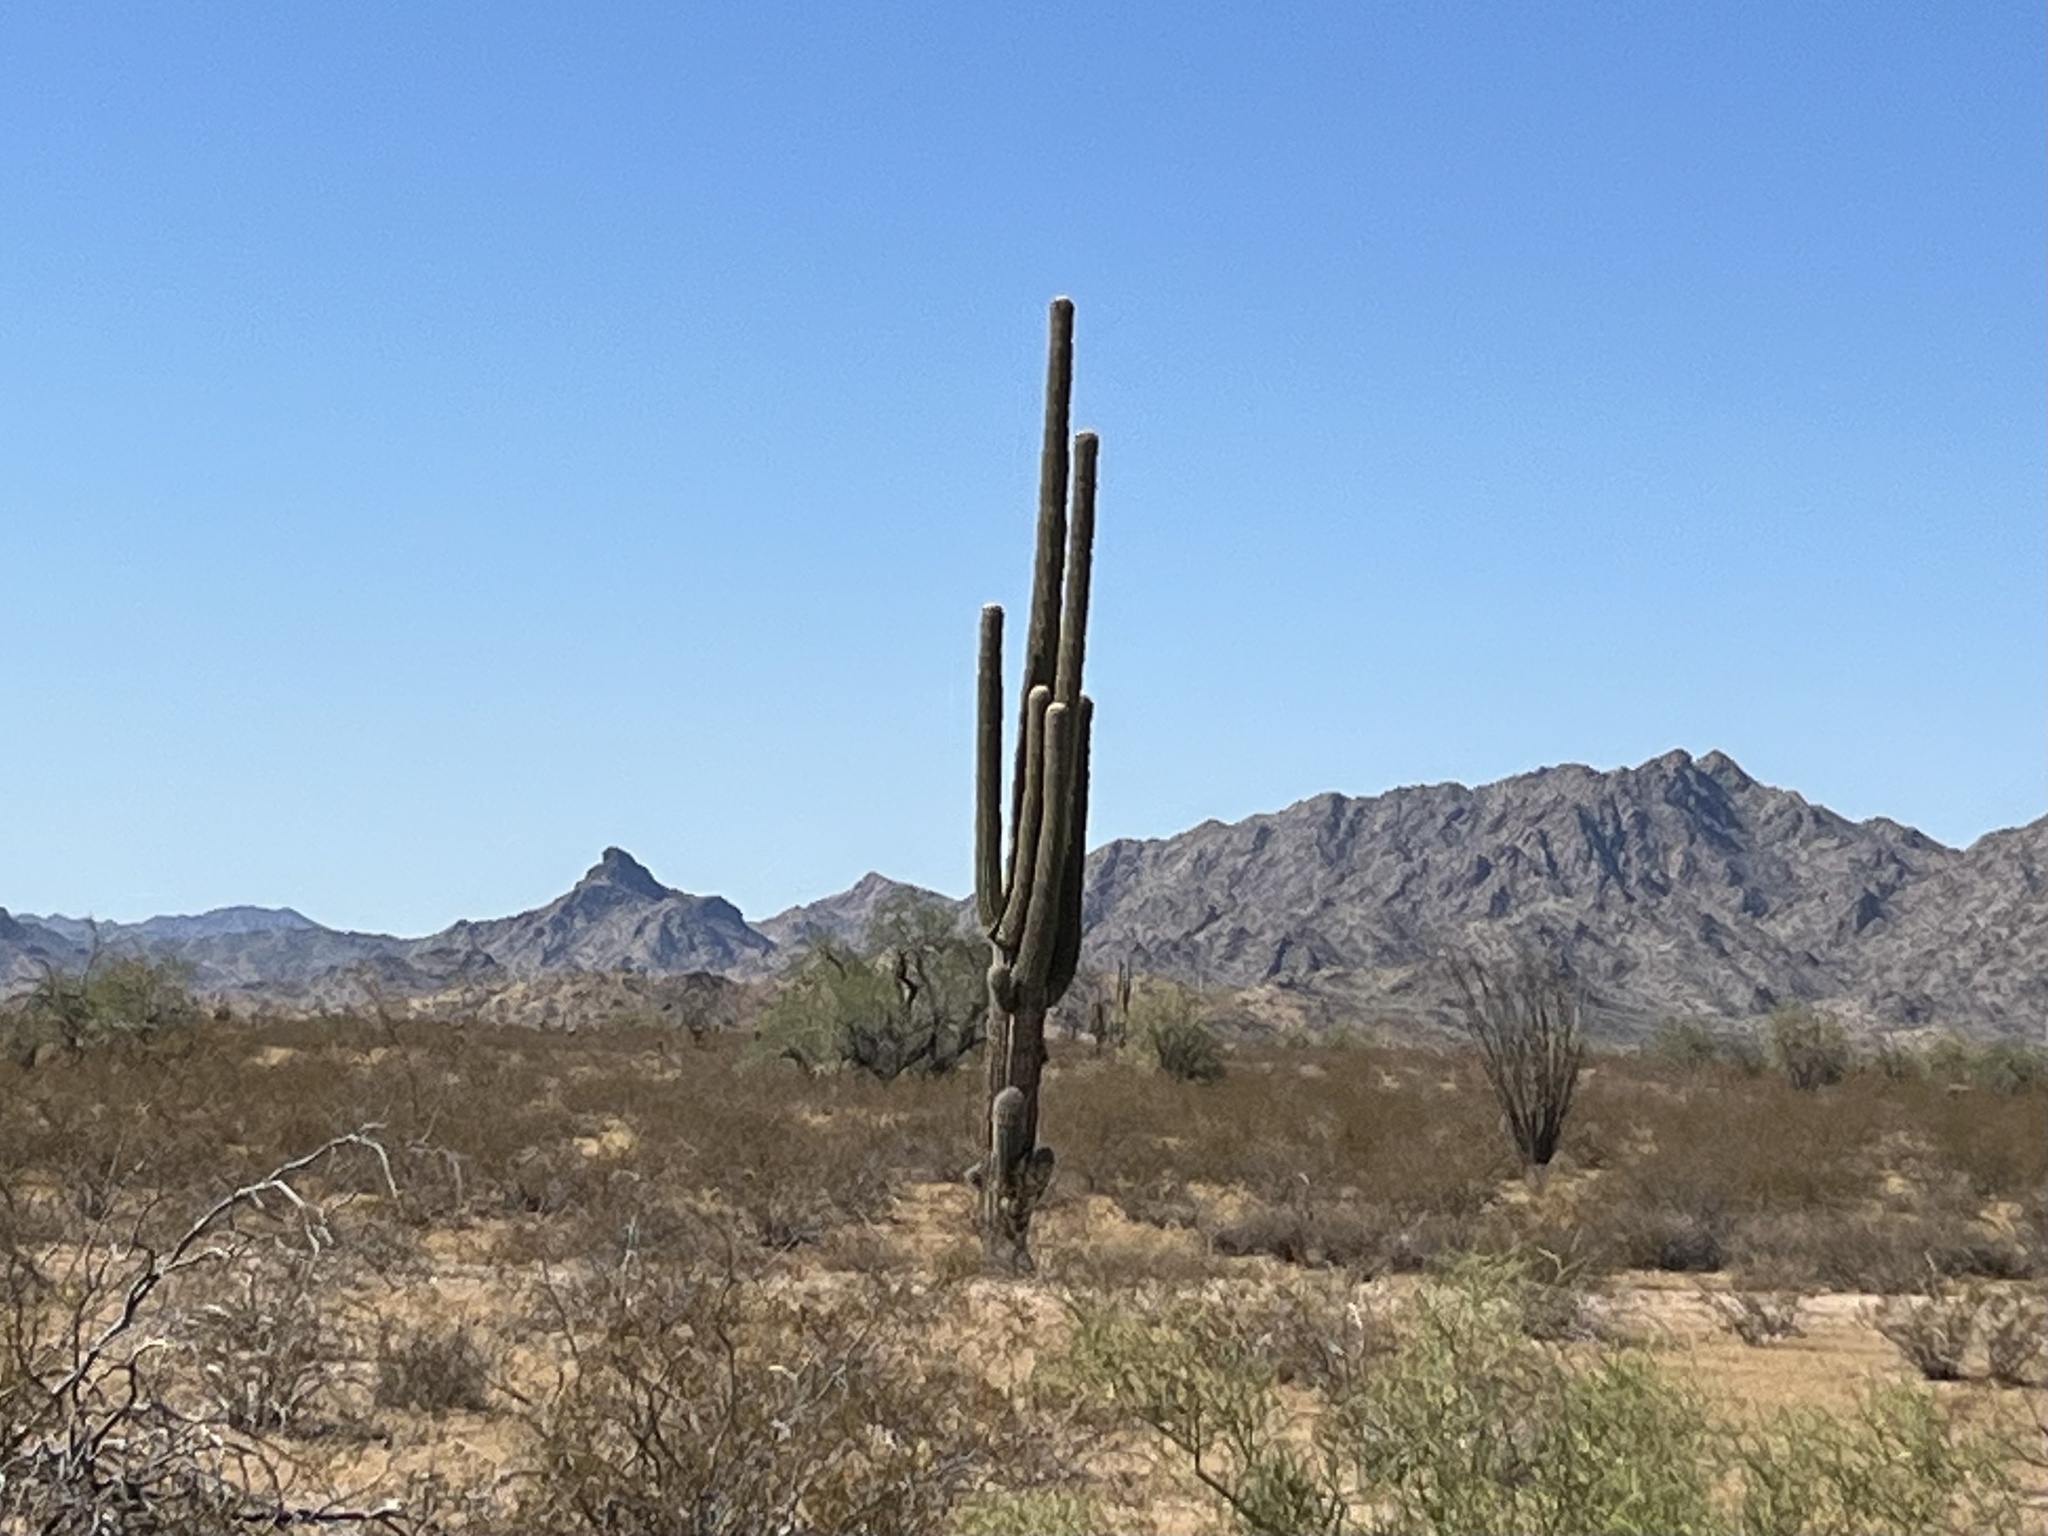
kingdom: Plantae
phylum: Tracheophyta
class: Magnoliopsida
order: Caryophyllales
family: Cactaceae
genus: Carnegiea
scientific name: Carnegiea gigantea
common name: Saguaro
